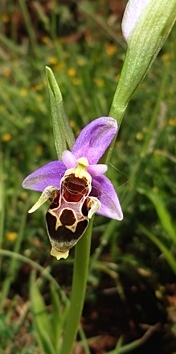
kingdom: Plantae
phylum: Tracheophyta
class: Liliopsida
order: Asparagales
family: Orchidaceae
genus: Ophrys
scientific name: Ophrys scolopax
